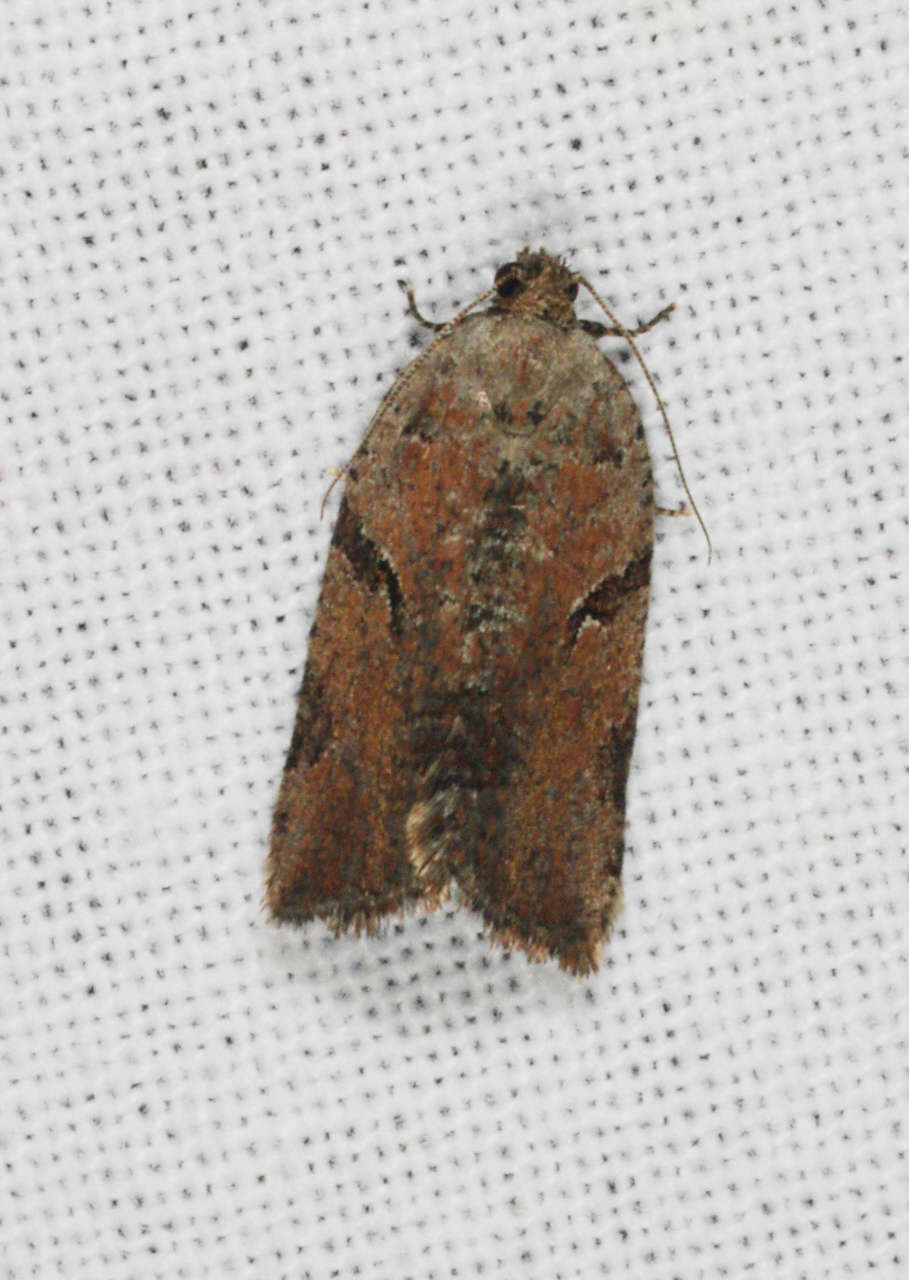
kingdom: Animalia
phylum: Arthropoda
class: Insecta
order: Lepidoptera
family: Tortricidae
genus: Meritastis
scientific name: Meritastis pyrosemana
